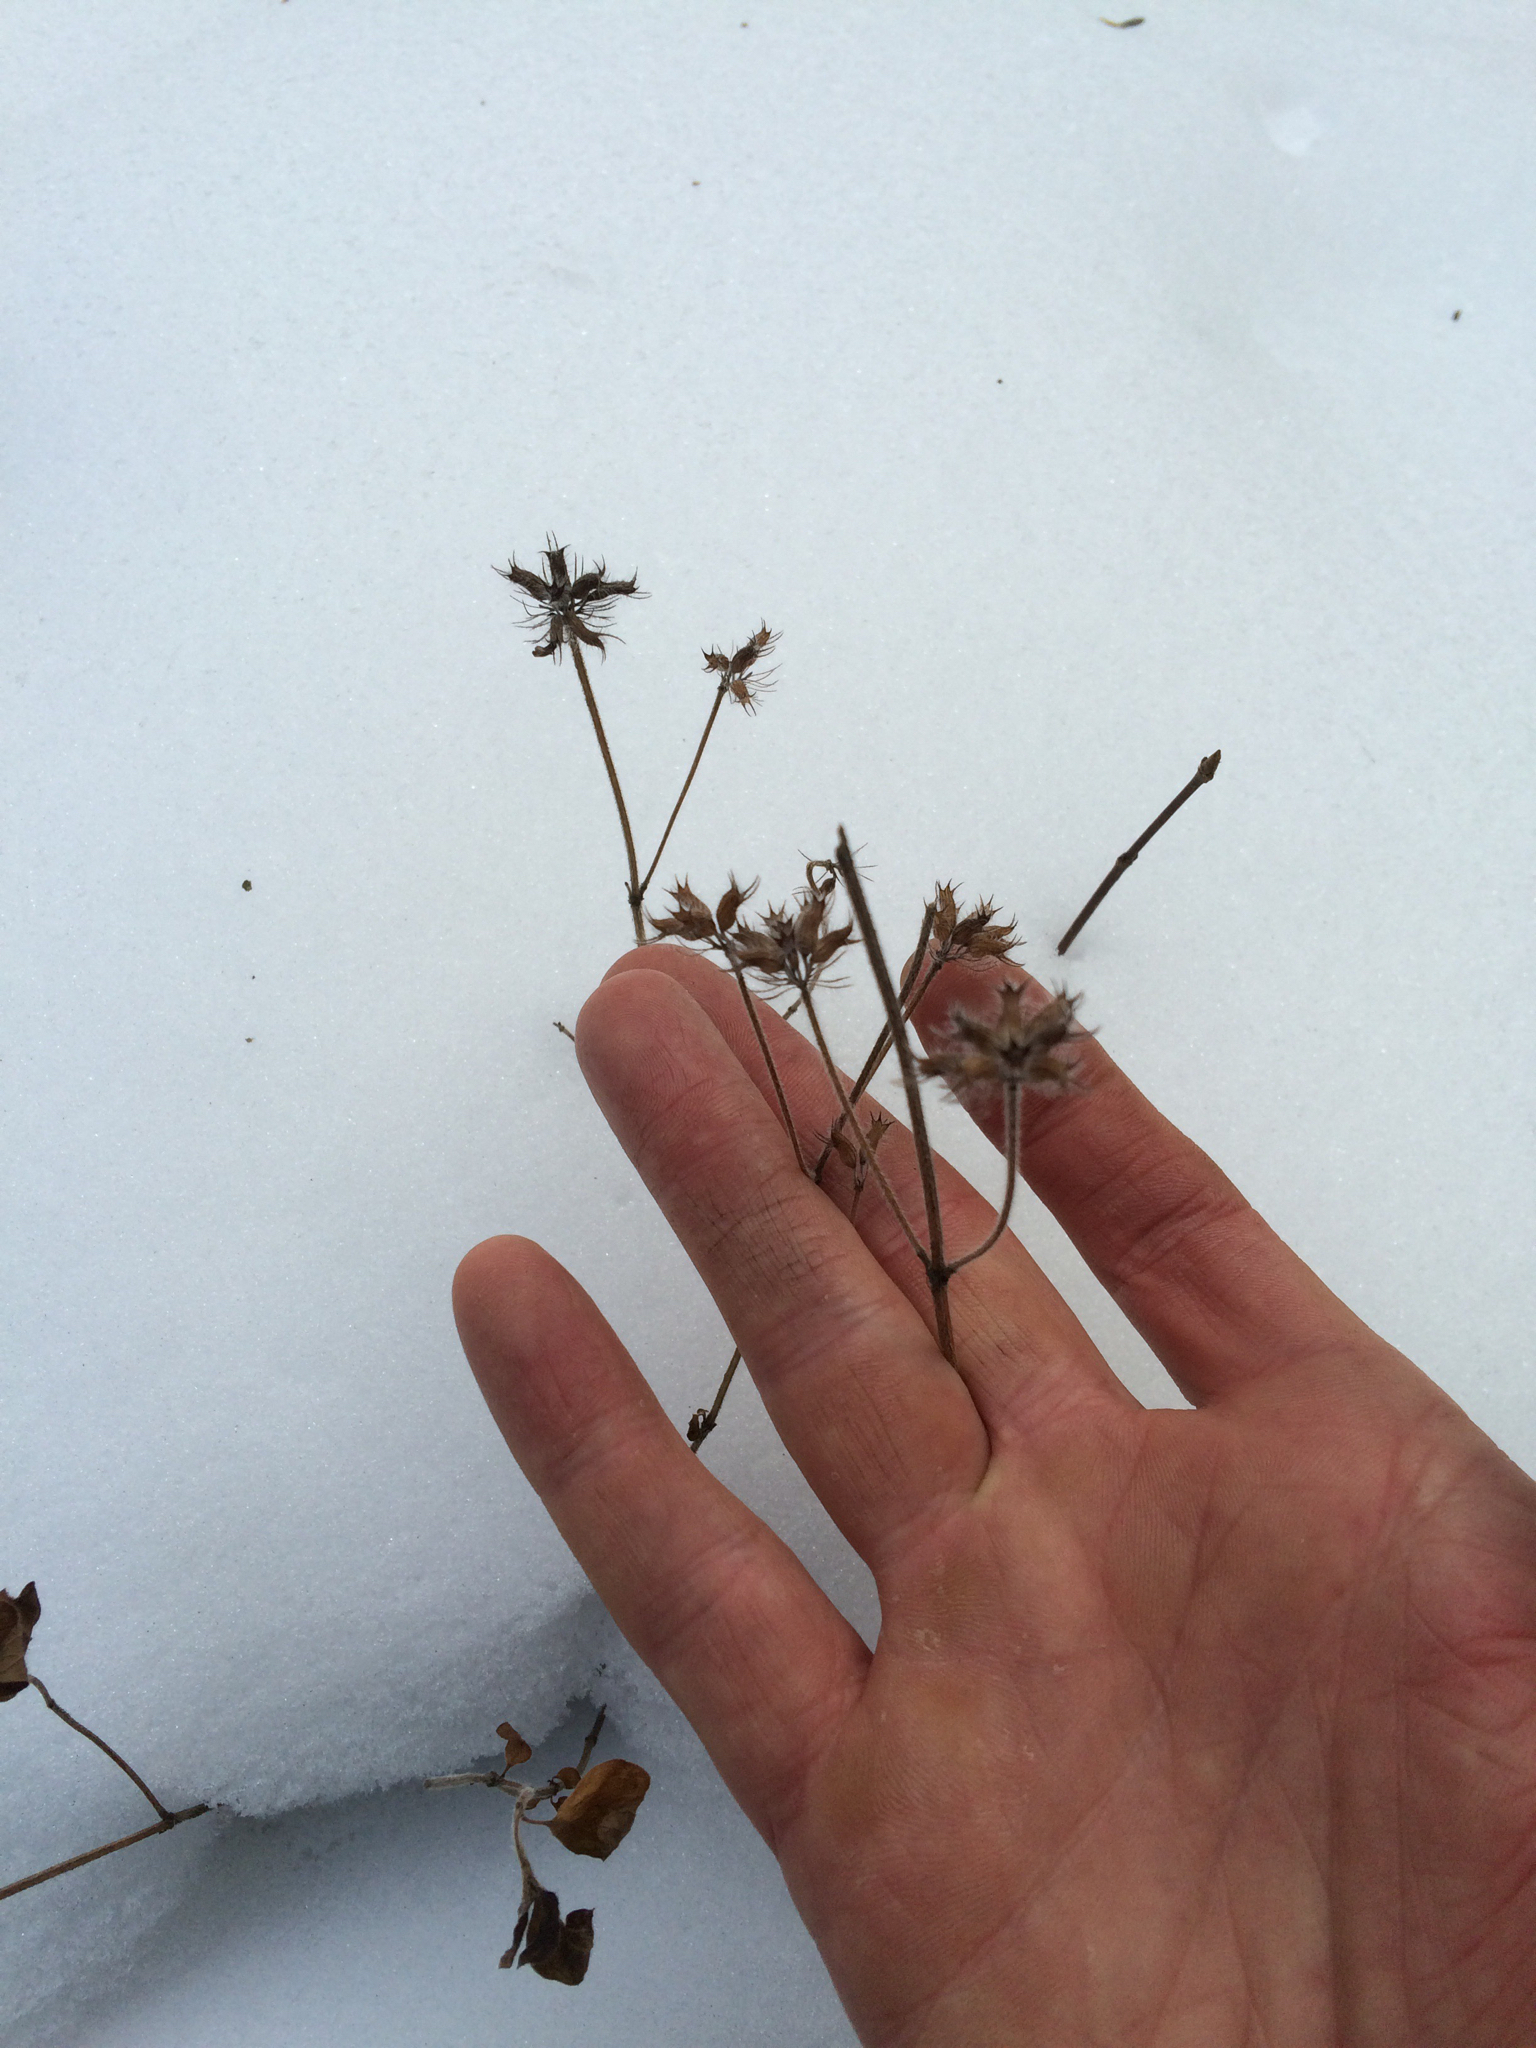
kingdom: Plantae
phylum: Tracheophyta
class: Magnoliopsida
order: Lamiales
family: Lamiaceae
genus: Clinopodium
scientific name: Clinopodium vulgare
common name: Wild basil
